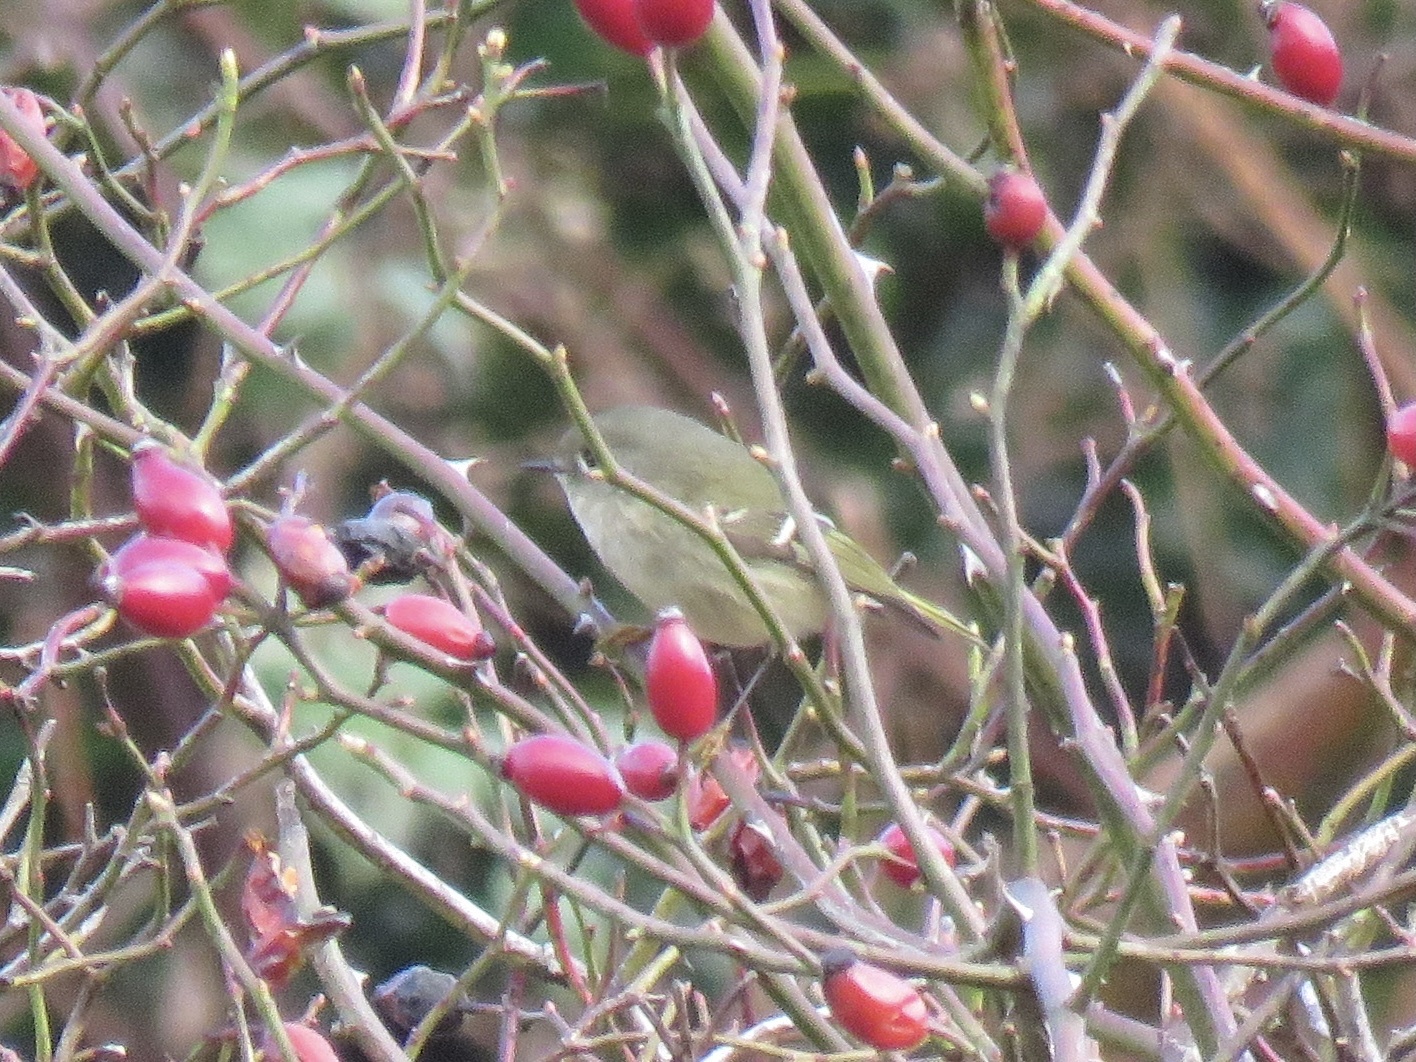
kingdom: Animalia
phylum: Chordata
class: Aves
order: Passeriformes
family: Regulidae
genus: Regulus
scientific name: Regulus calendula
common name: Ruby-crowned kinglet
